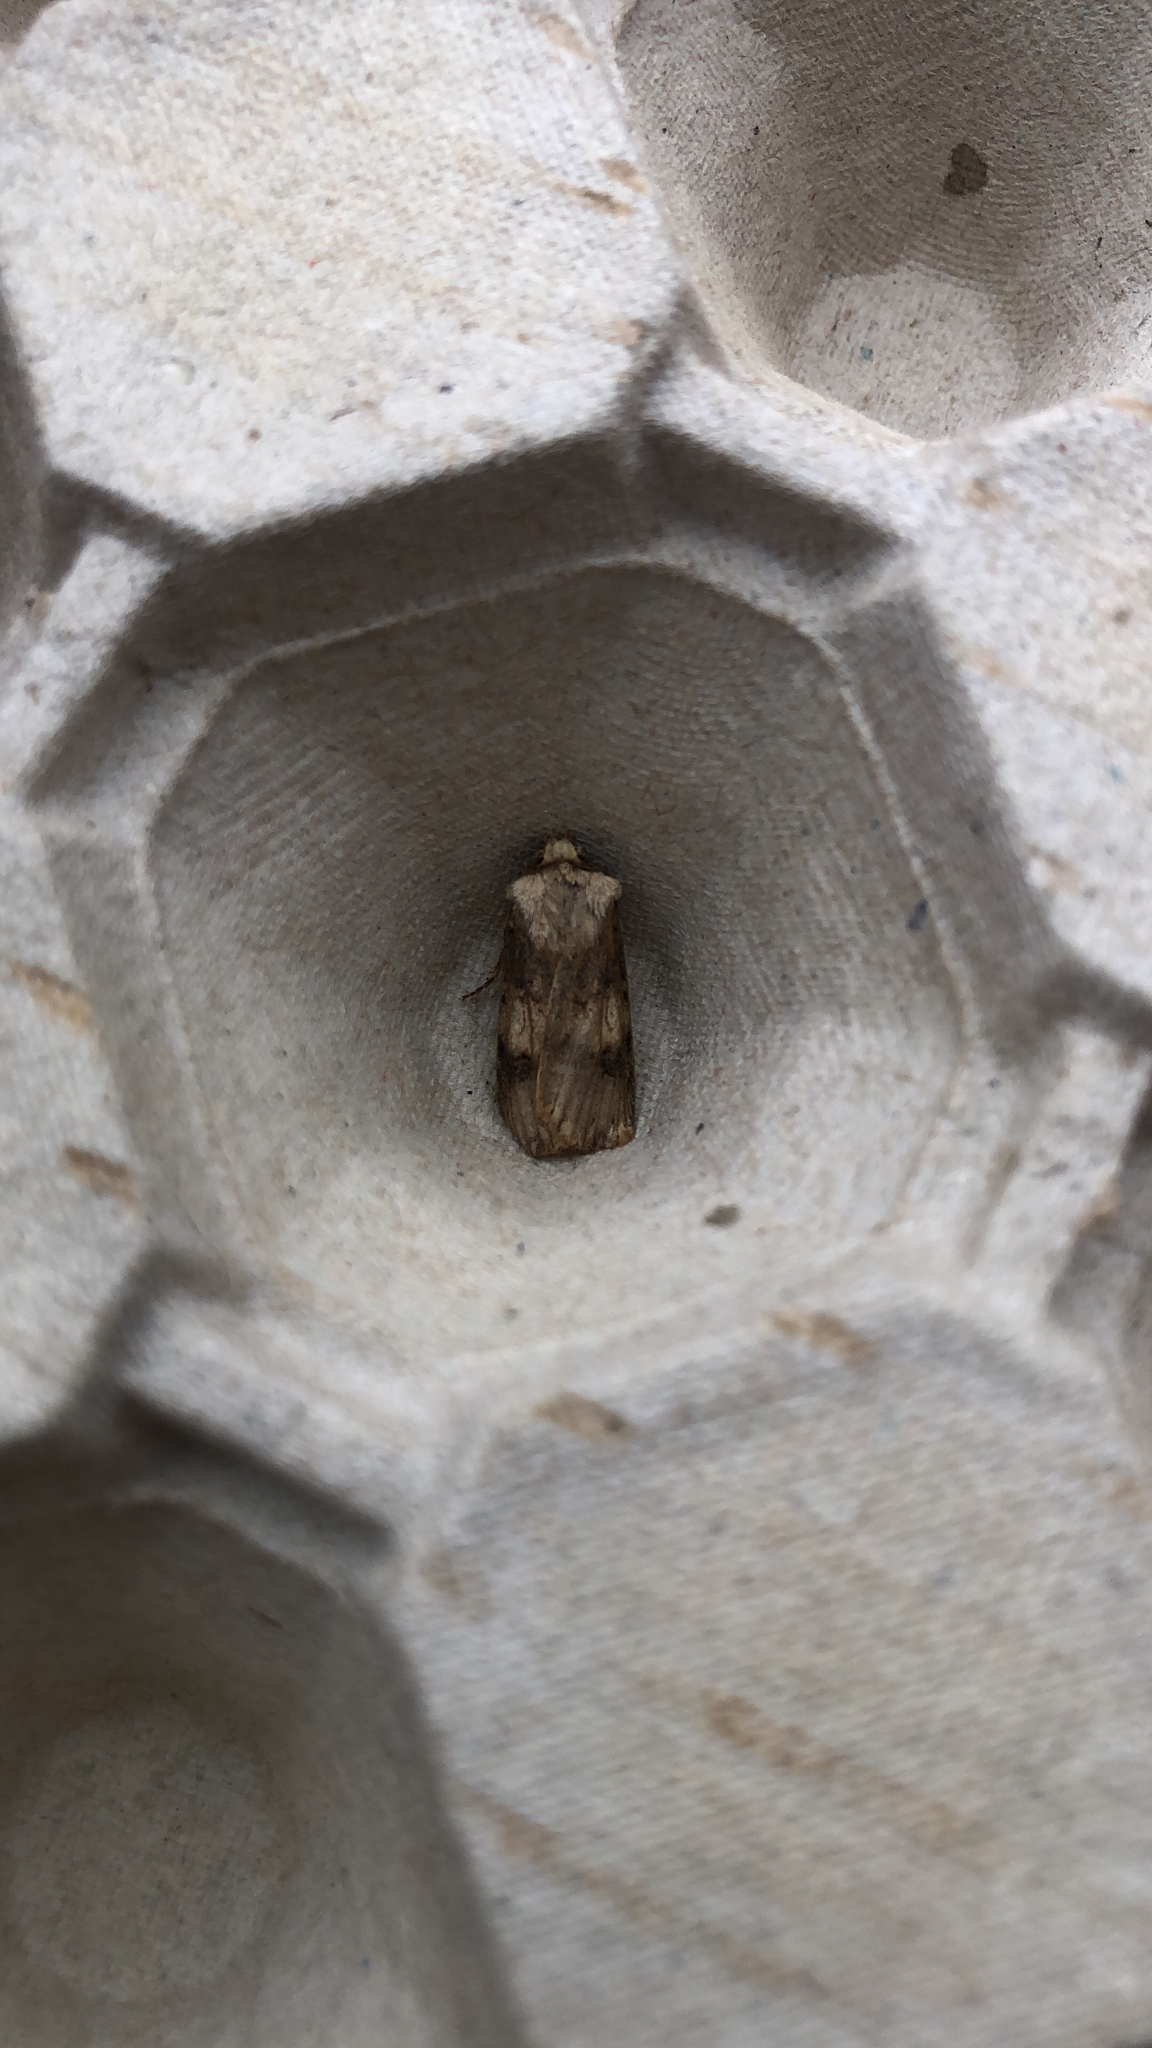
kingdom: Animalia
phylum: Arthropoda
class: Insecta
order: Lepidoptera
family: Noctuidae
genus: Agrotis
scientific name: Agrotis puta
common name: Shuttle-shaped dart
